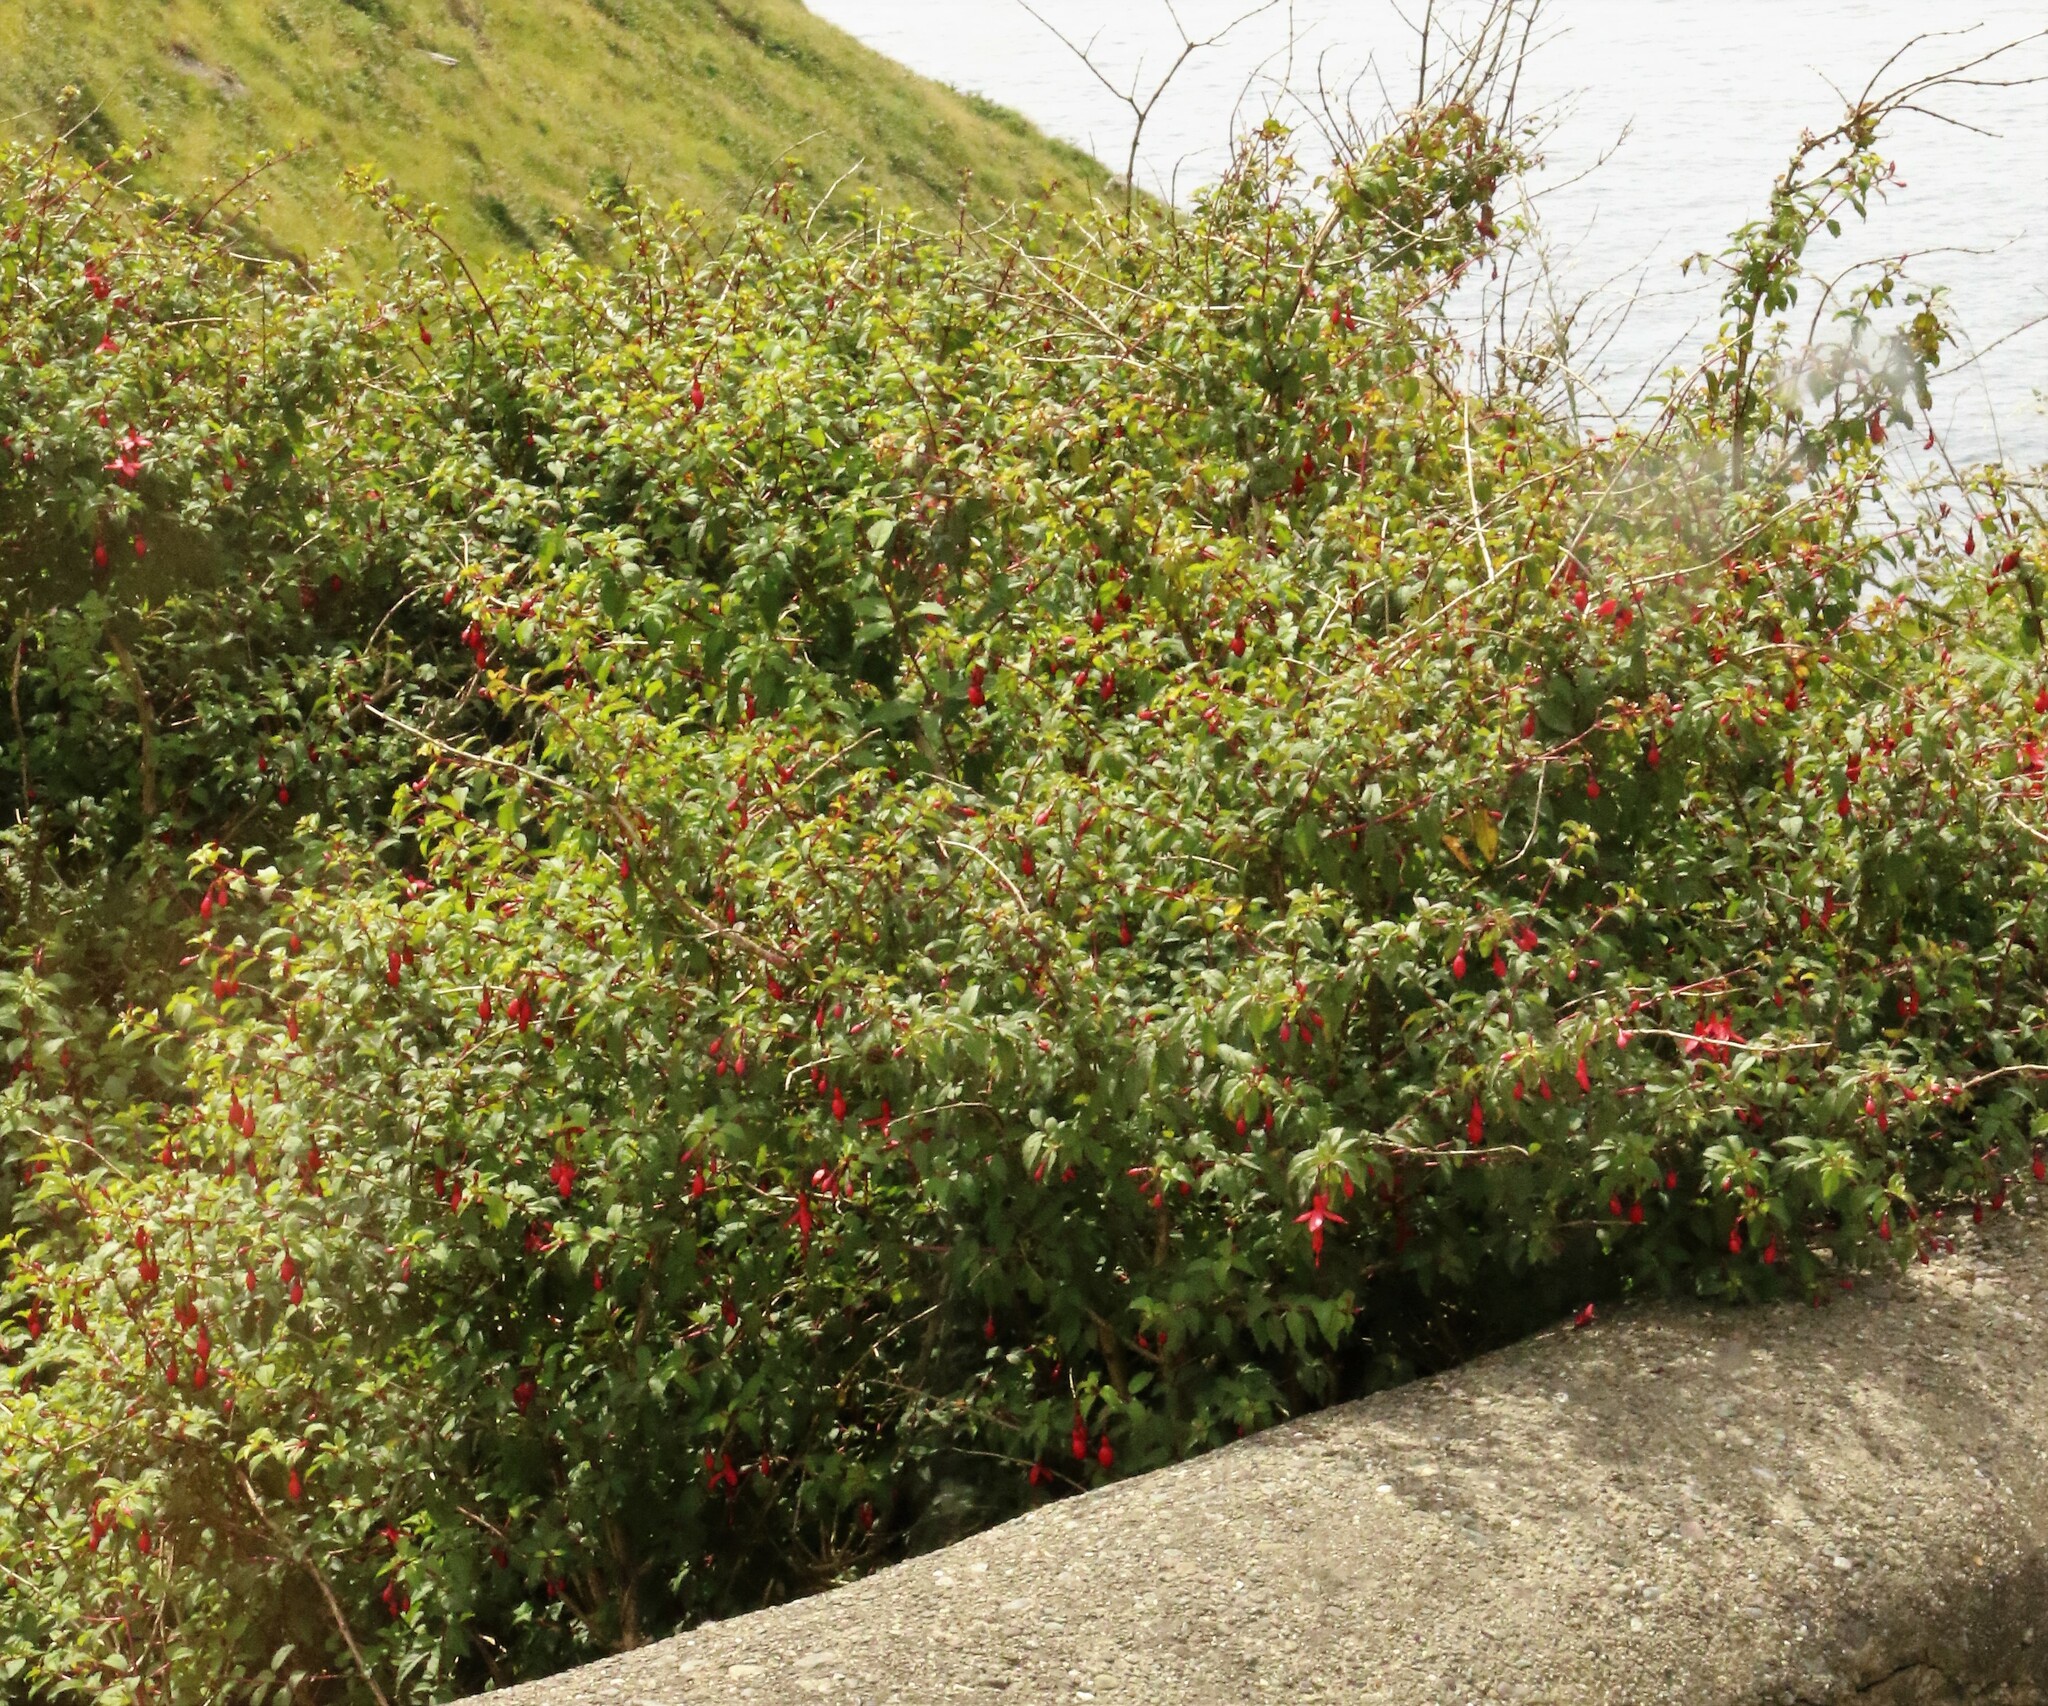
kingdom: Plantae
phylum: Tracheophyta
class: Magnoliopsida
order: Myrtales
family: Onagraceae
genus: Fuchsia
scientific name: Fuchsia magellanica
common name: Hardy fuchsia
